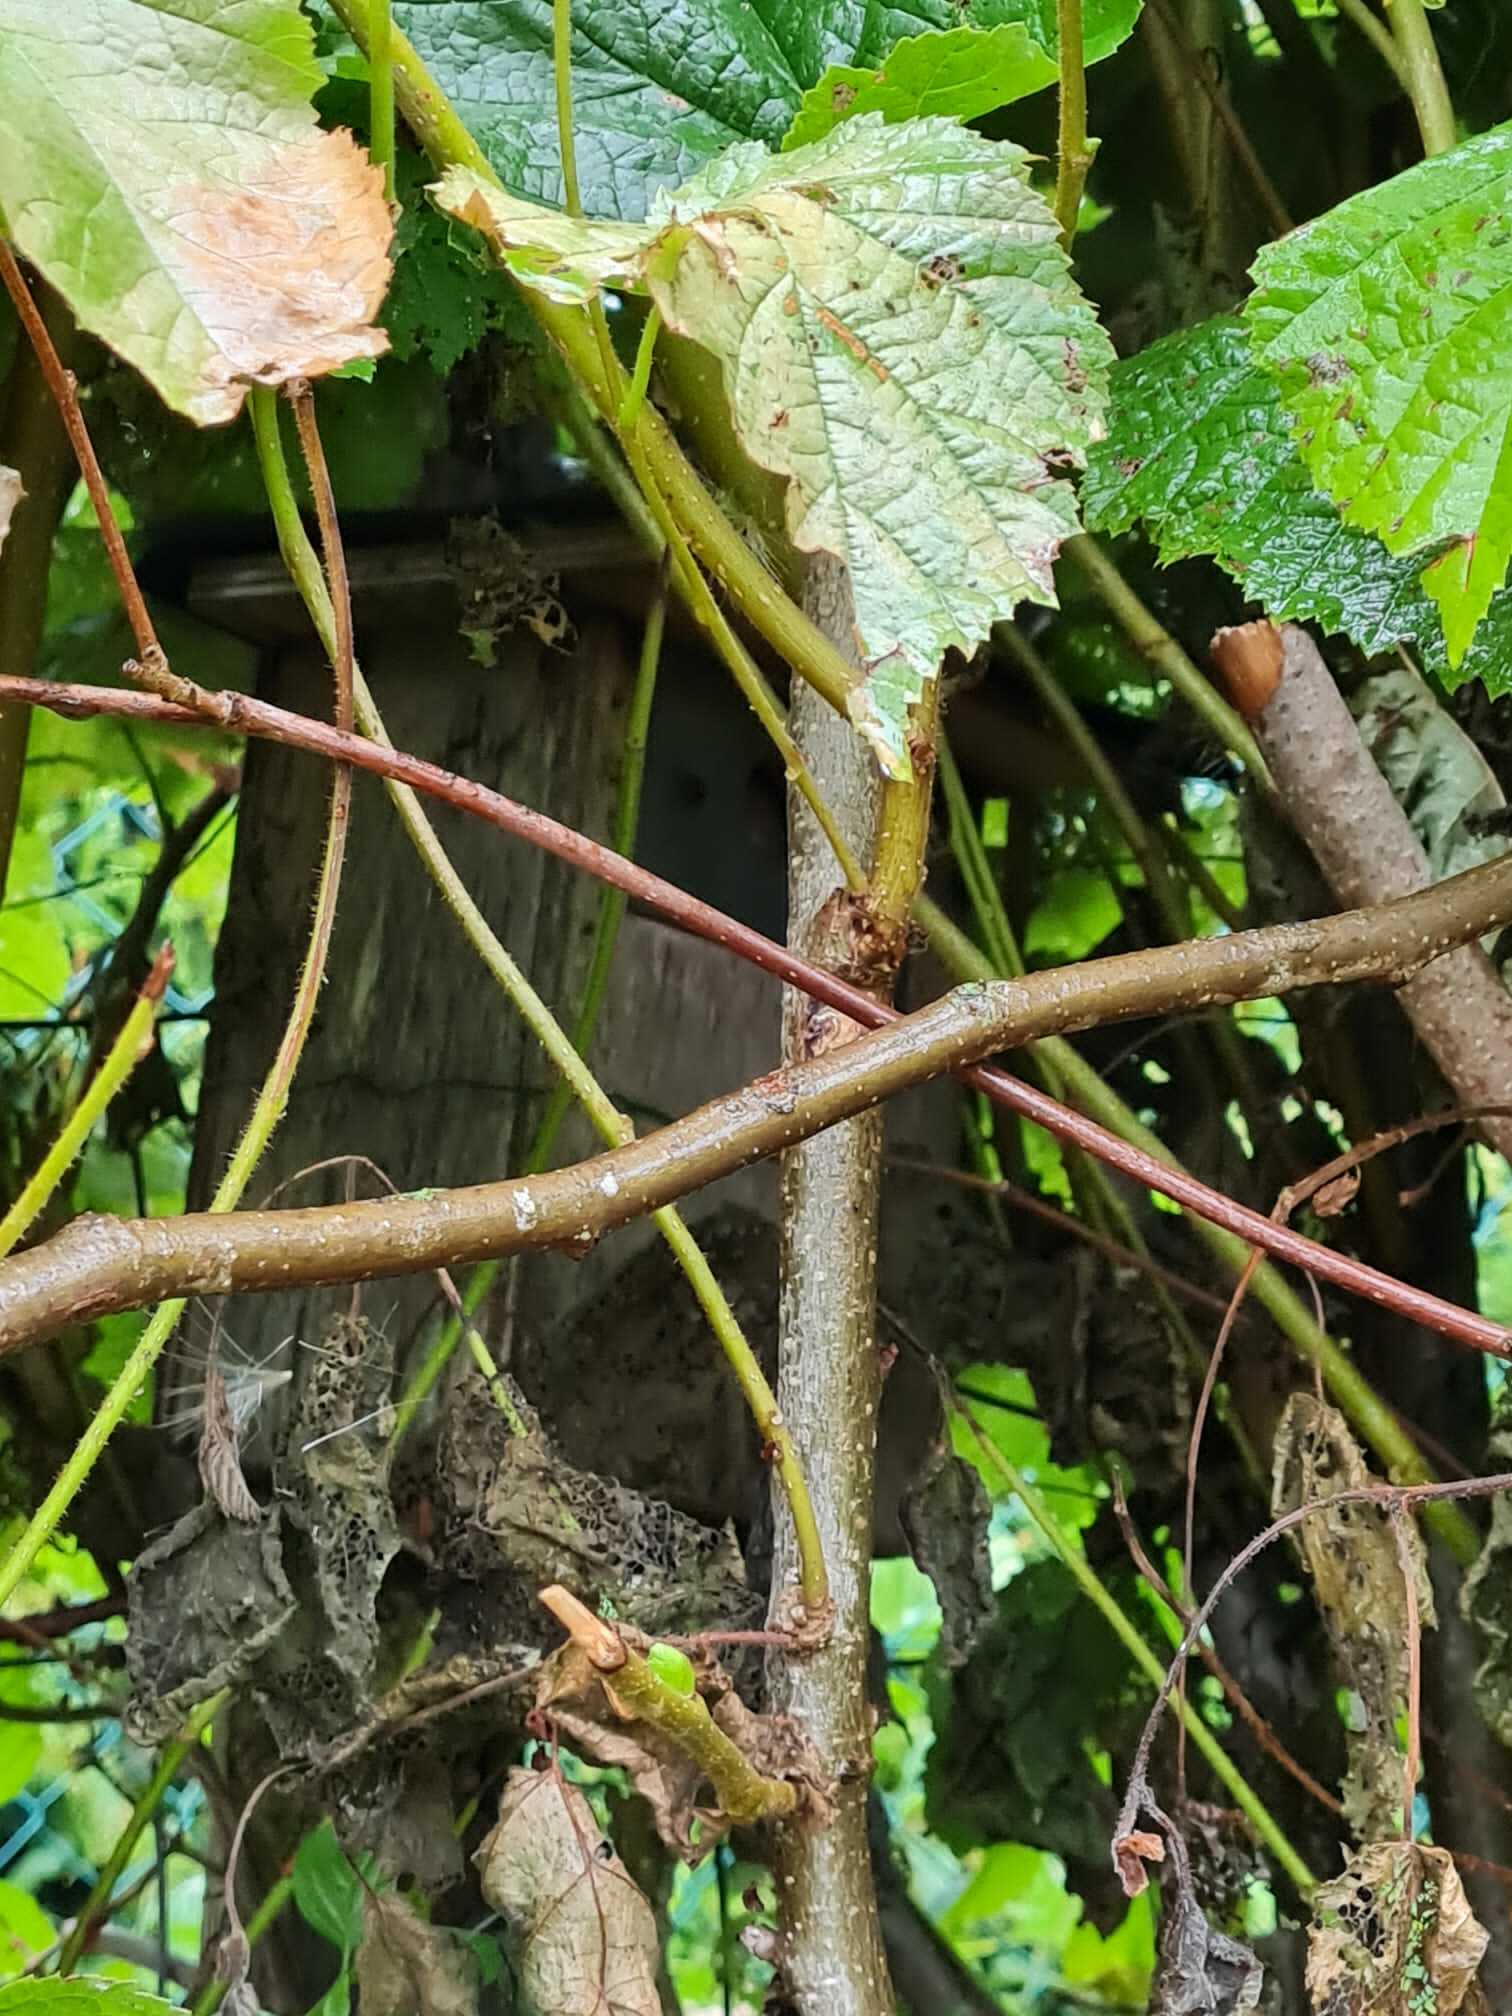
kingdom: Animalia
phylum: Arthropoda
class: Insecta
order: Hymenoptera
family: Vespidae
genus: Vespa
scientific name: Vespa velutina
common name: Asian hornet
